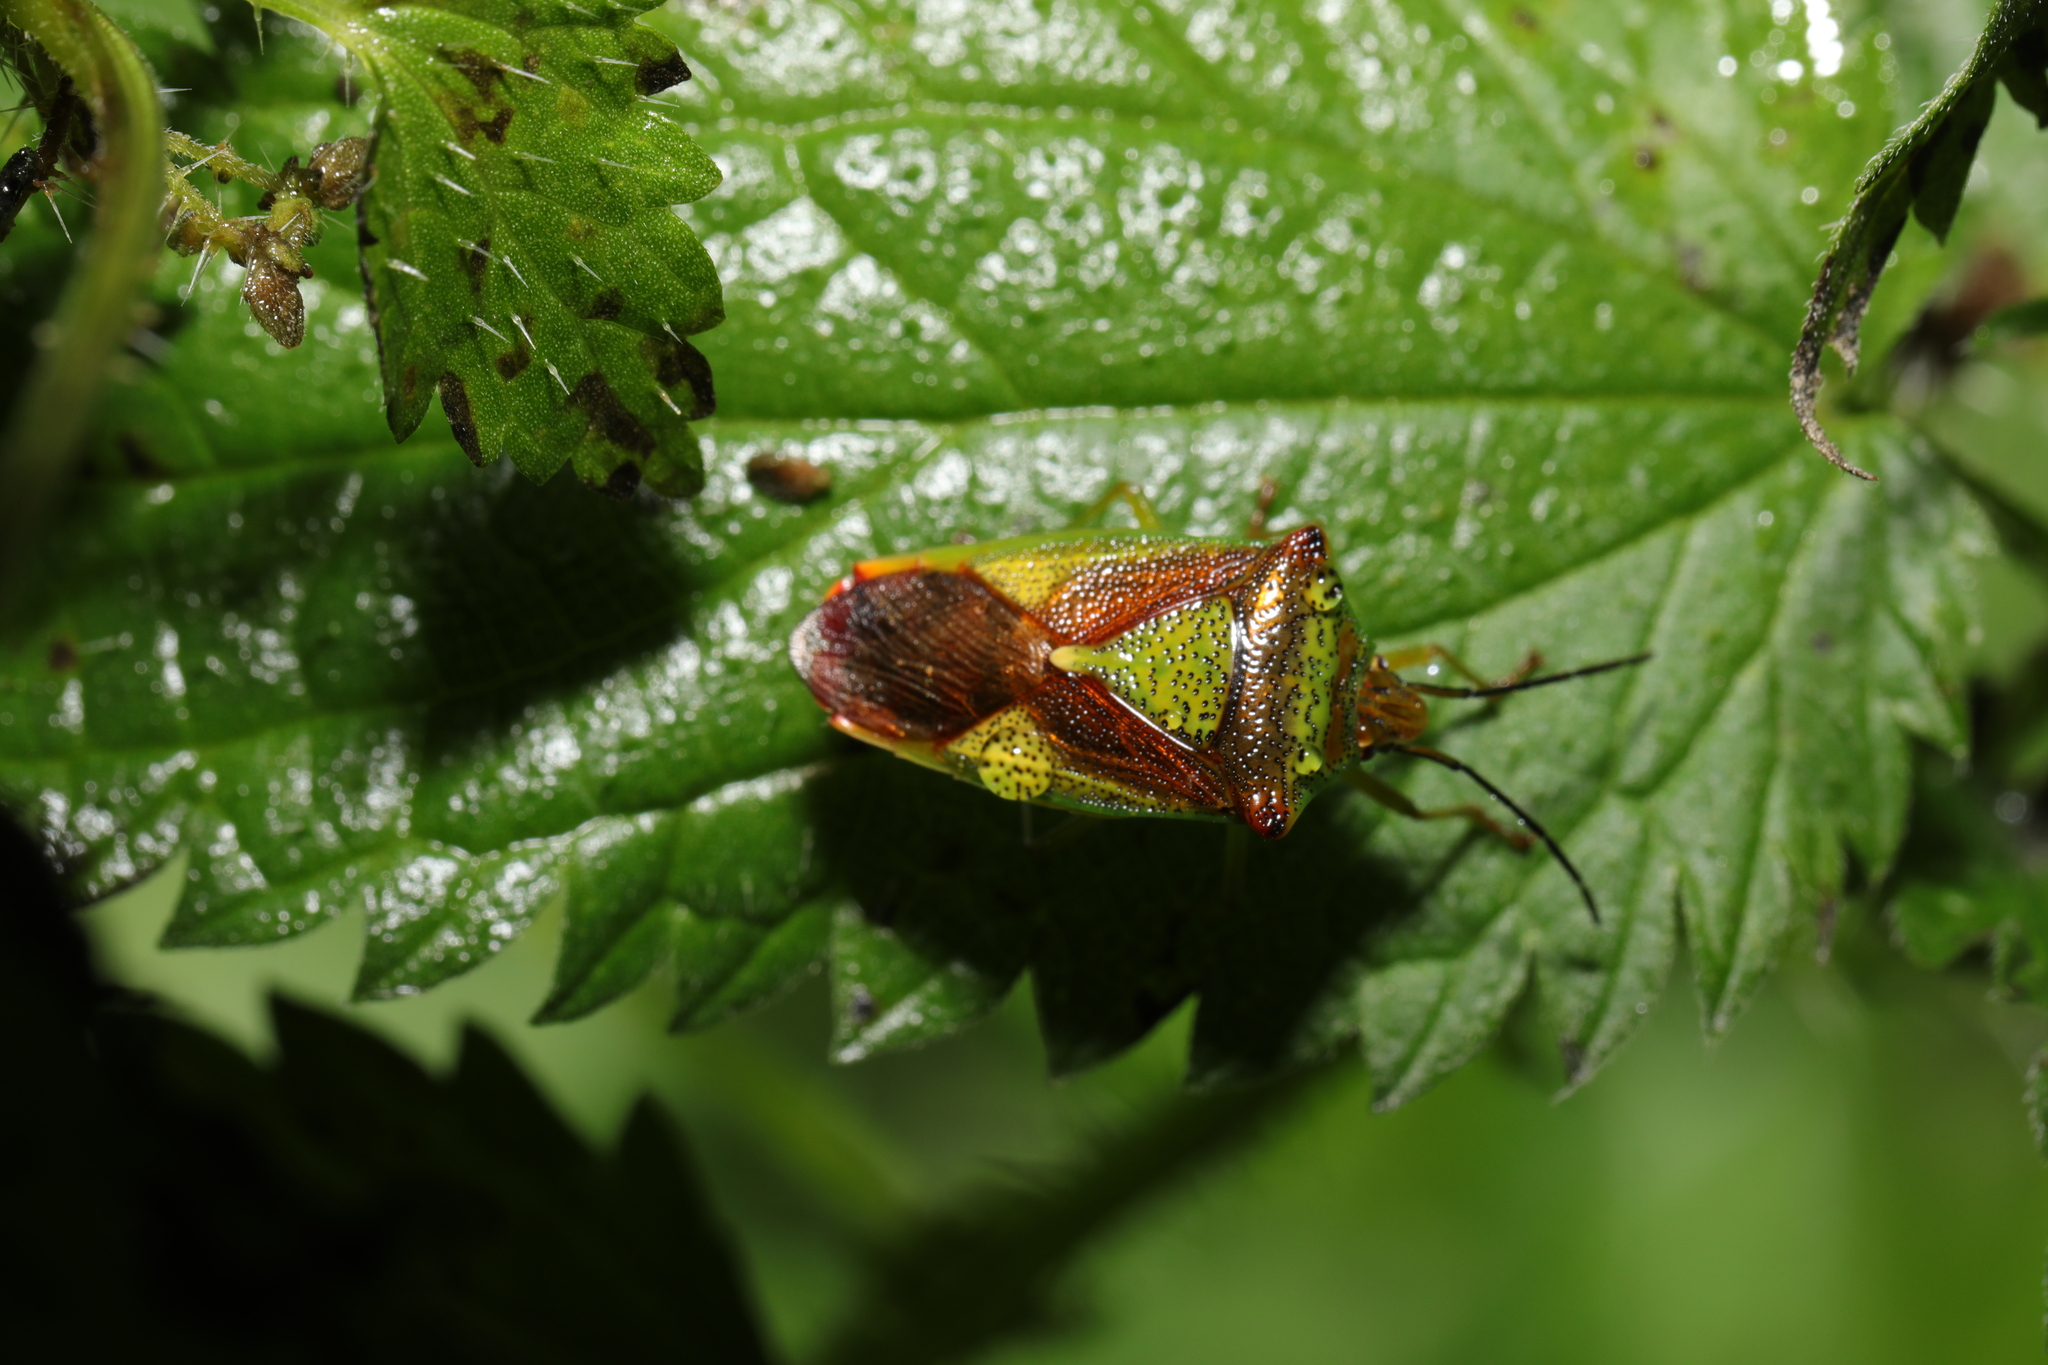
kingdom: Animalia
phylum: Arthropoda
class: Insecta
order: Hemiptera
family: Acanthosomatidae
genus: Acanthosoma
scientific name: Acanthosoma haemorrhoidale
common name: Hawthorn shieldbug
